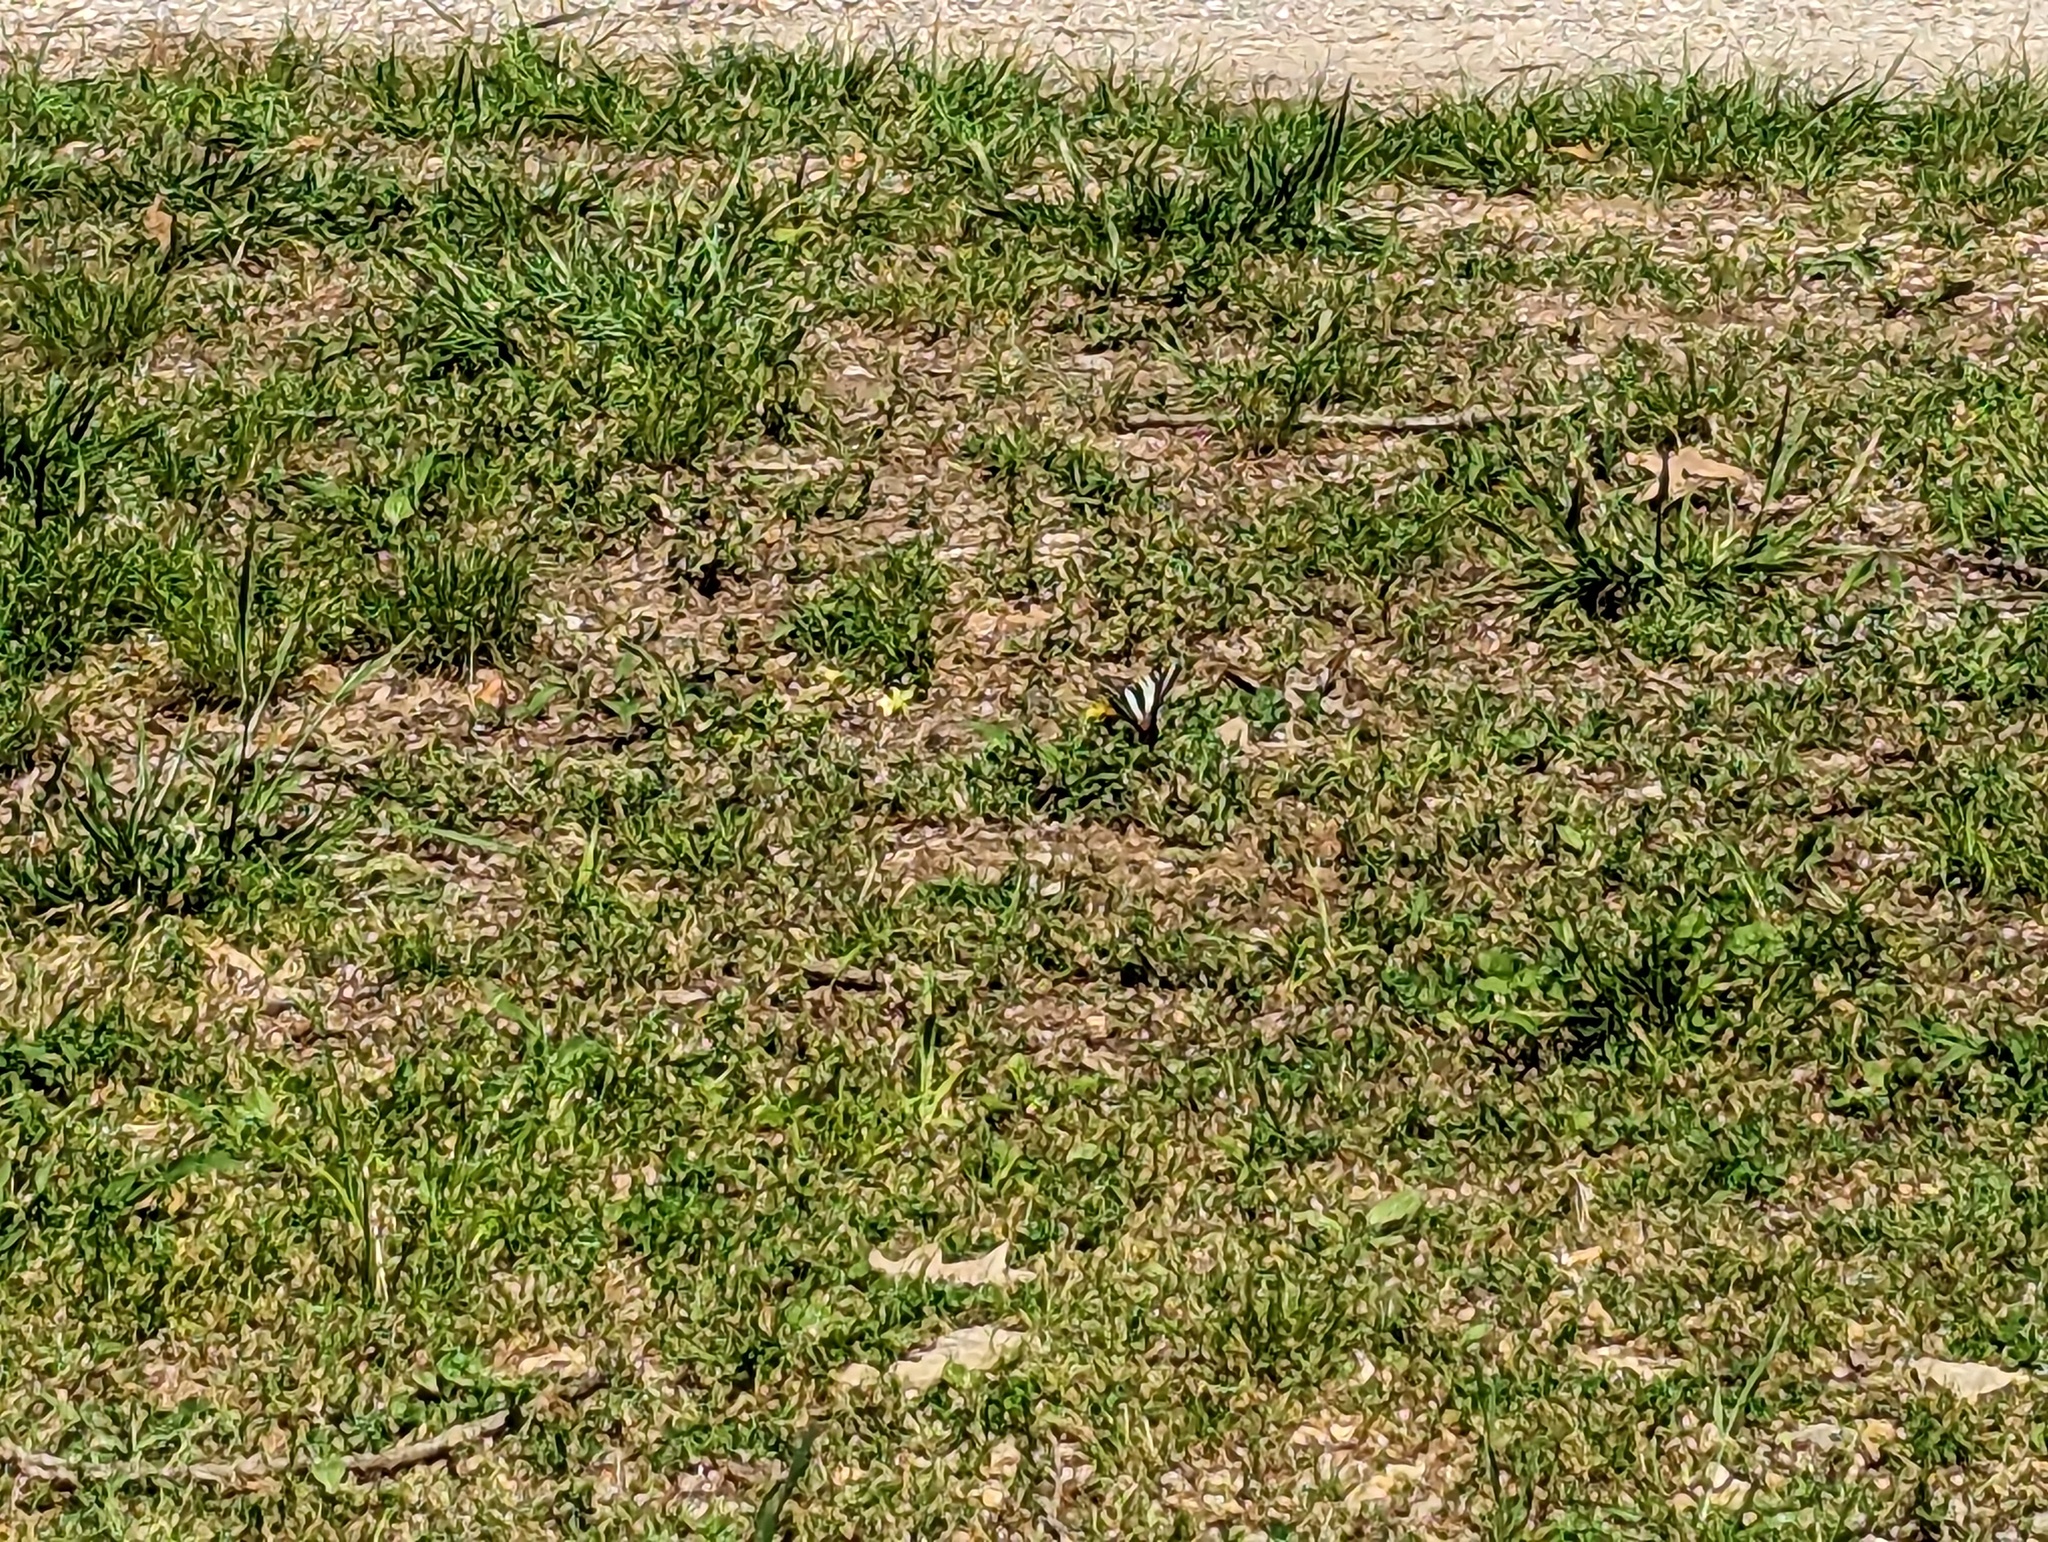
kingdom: Animalia
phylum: Arthropoda
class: Insecta
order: Lepidoptera
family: Papilionidae
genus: Protographium
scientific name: Protographium marcellus
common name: Zebra swallowtail
